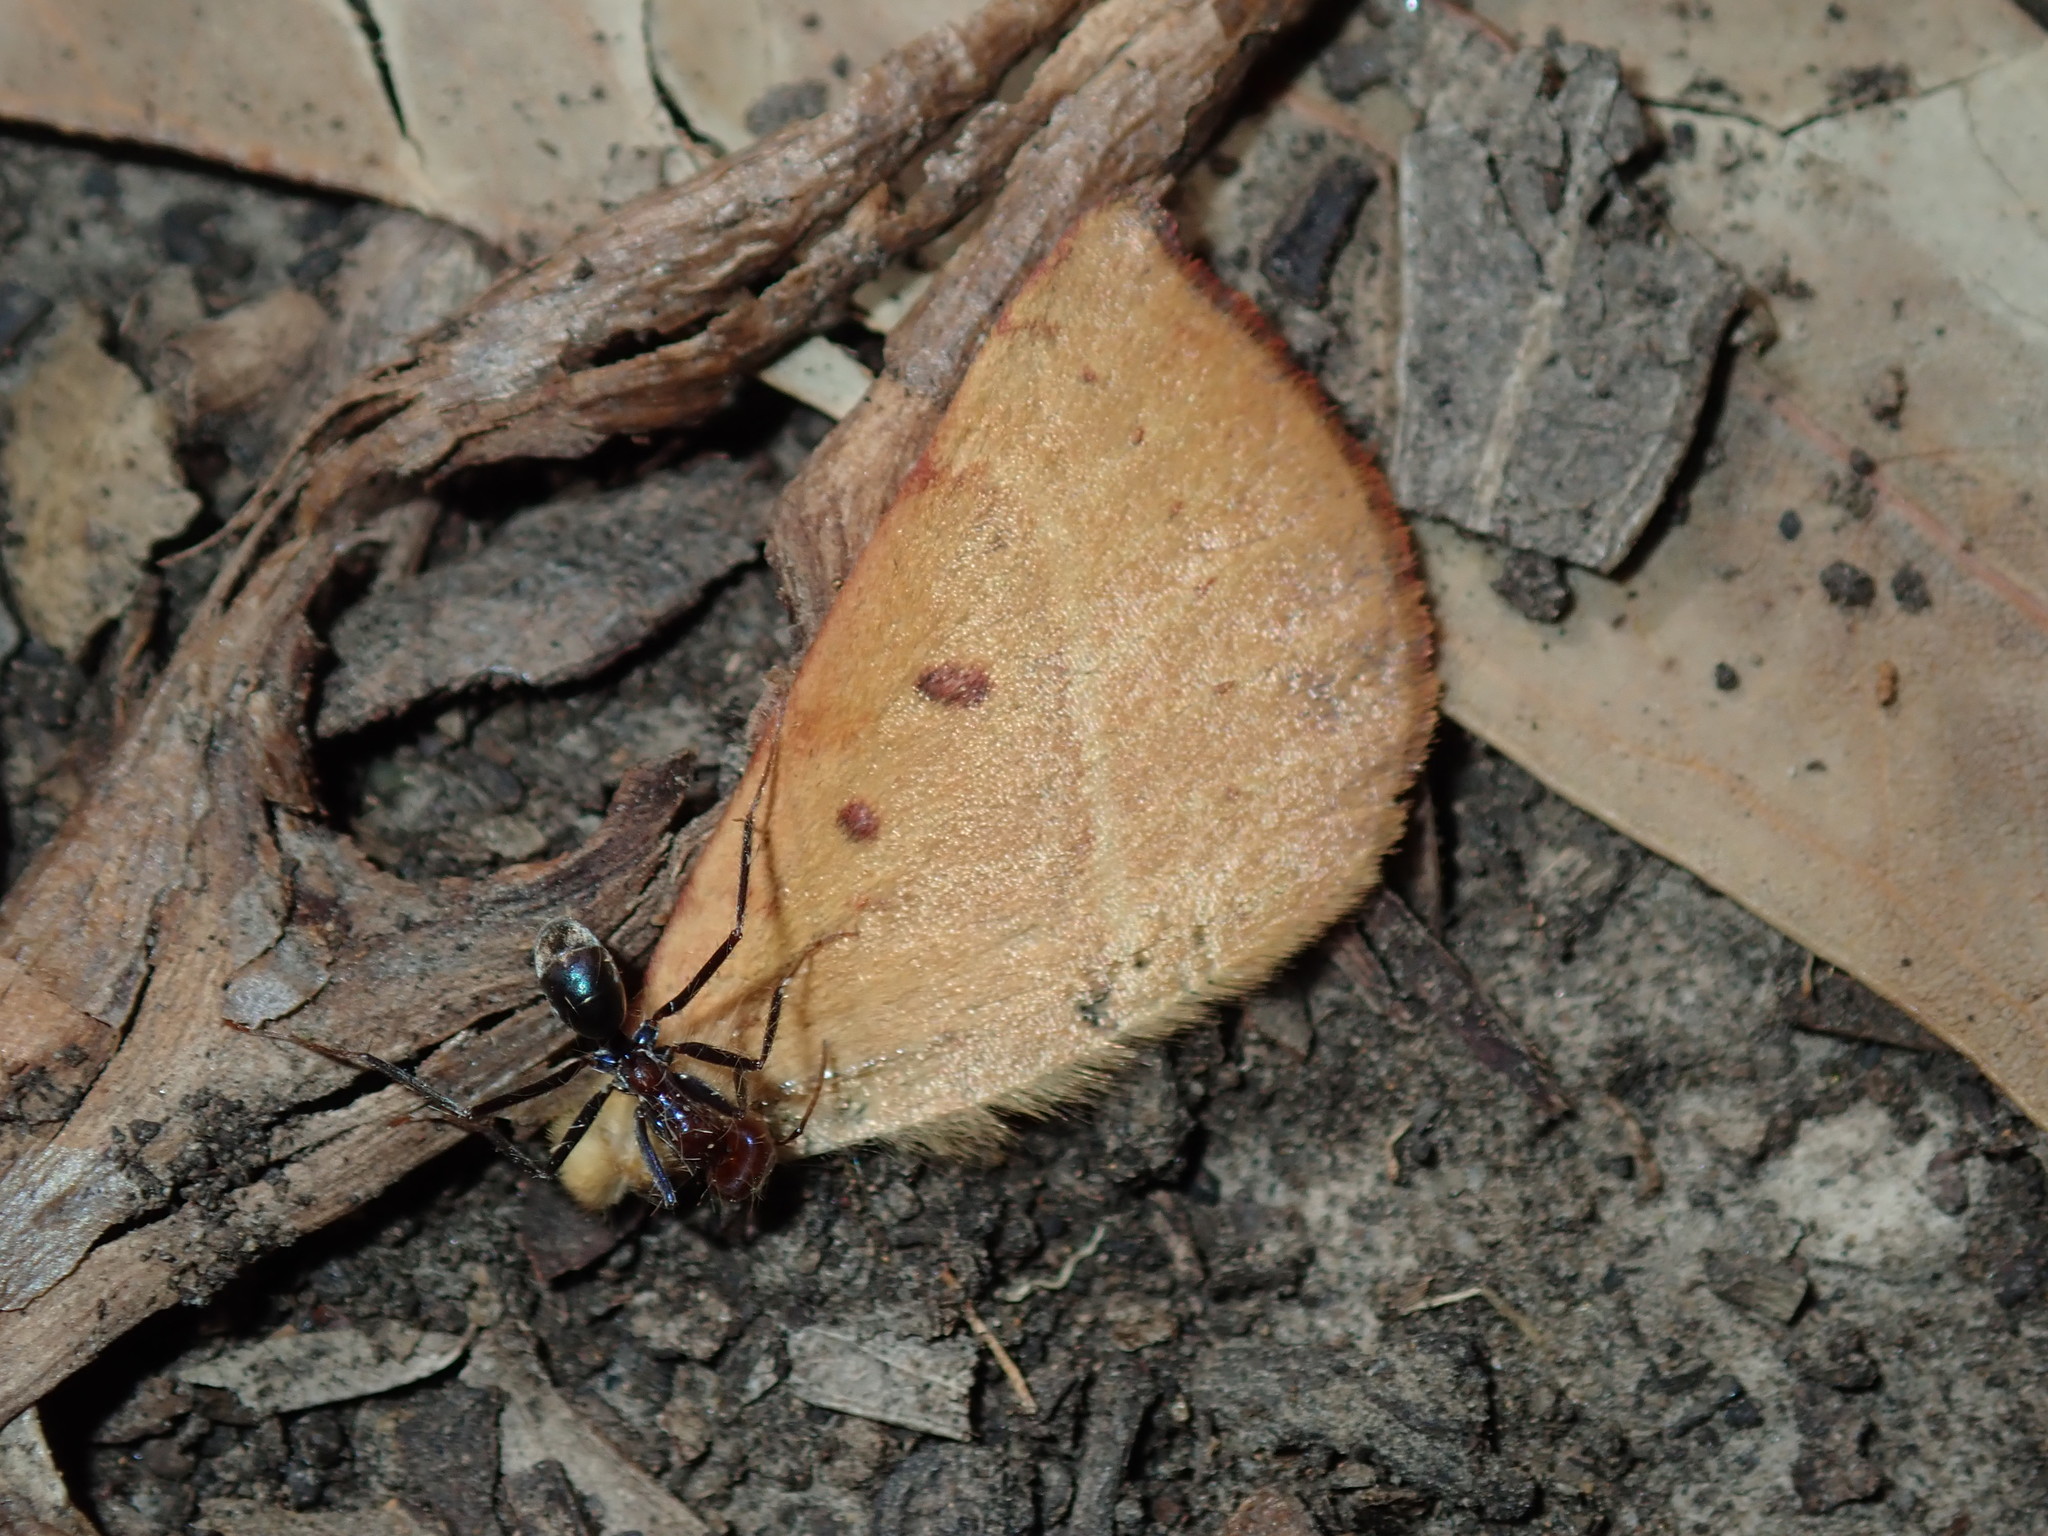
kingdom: Animalia
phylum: Arthropoda
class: Insecta
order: Hymenoptera
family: Formicidae
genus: Iridomyrmex
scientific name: Iridomyrmex purpureus
